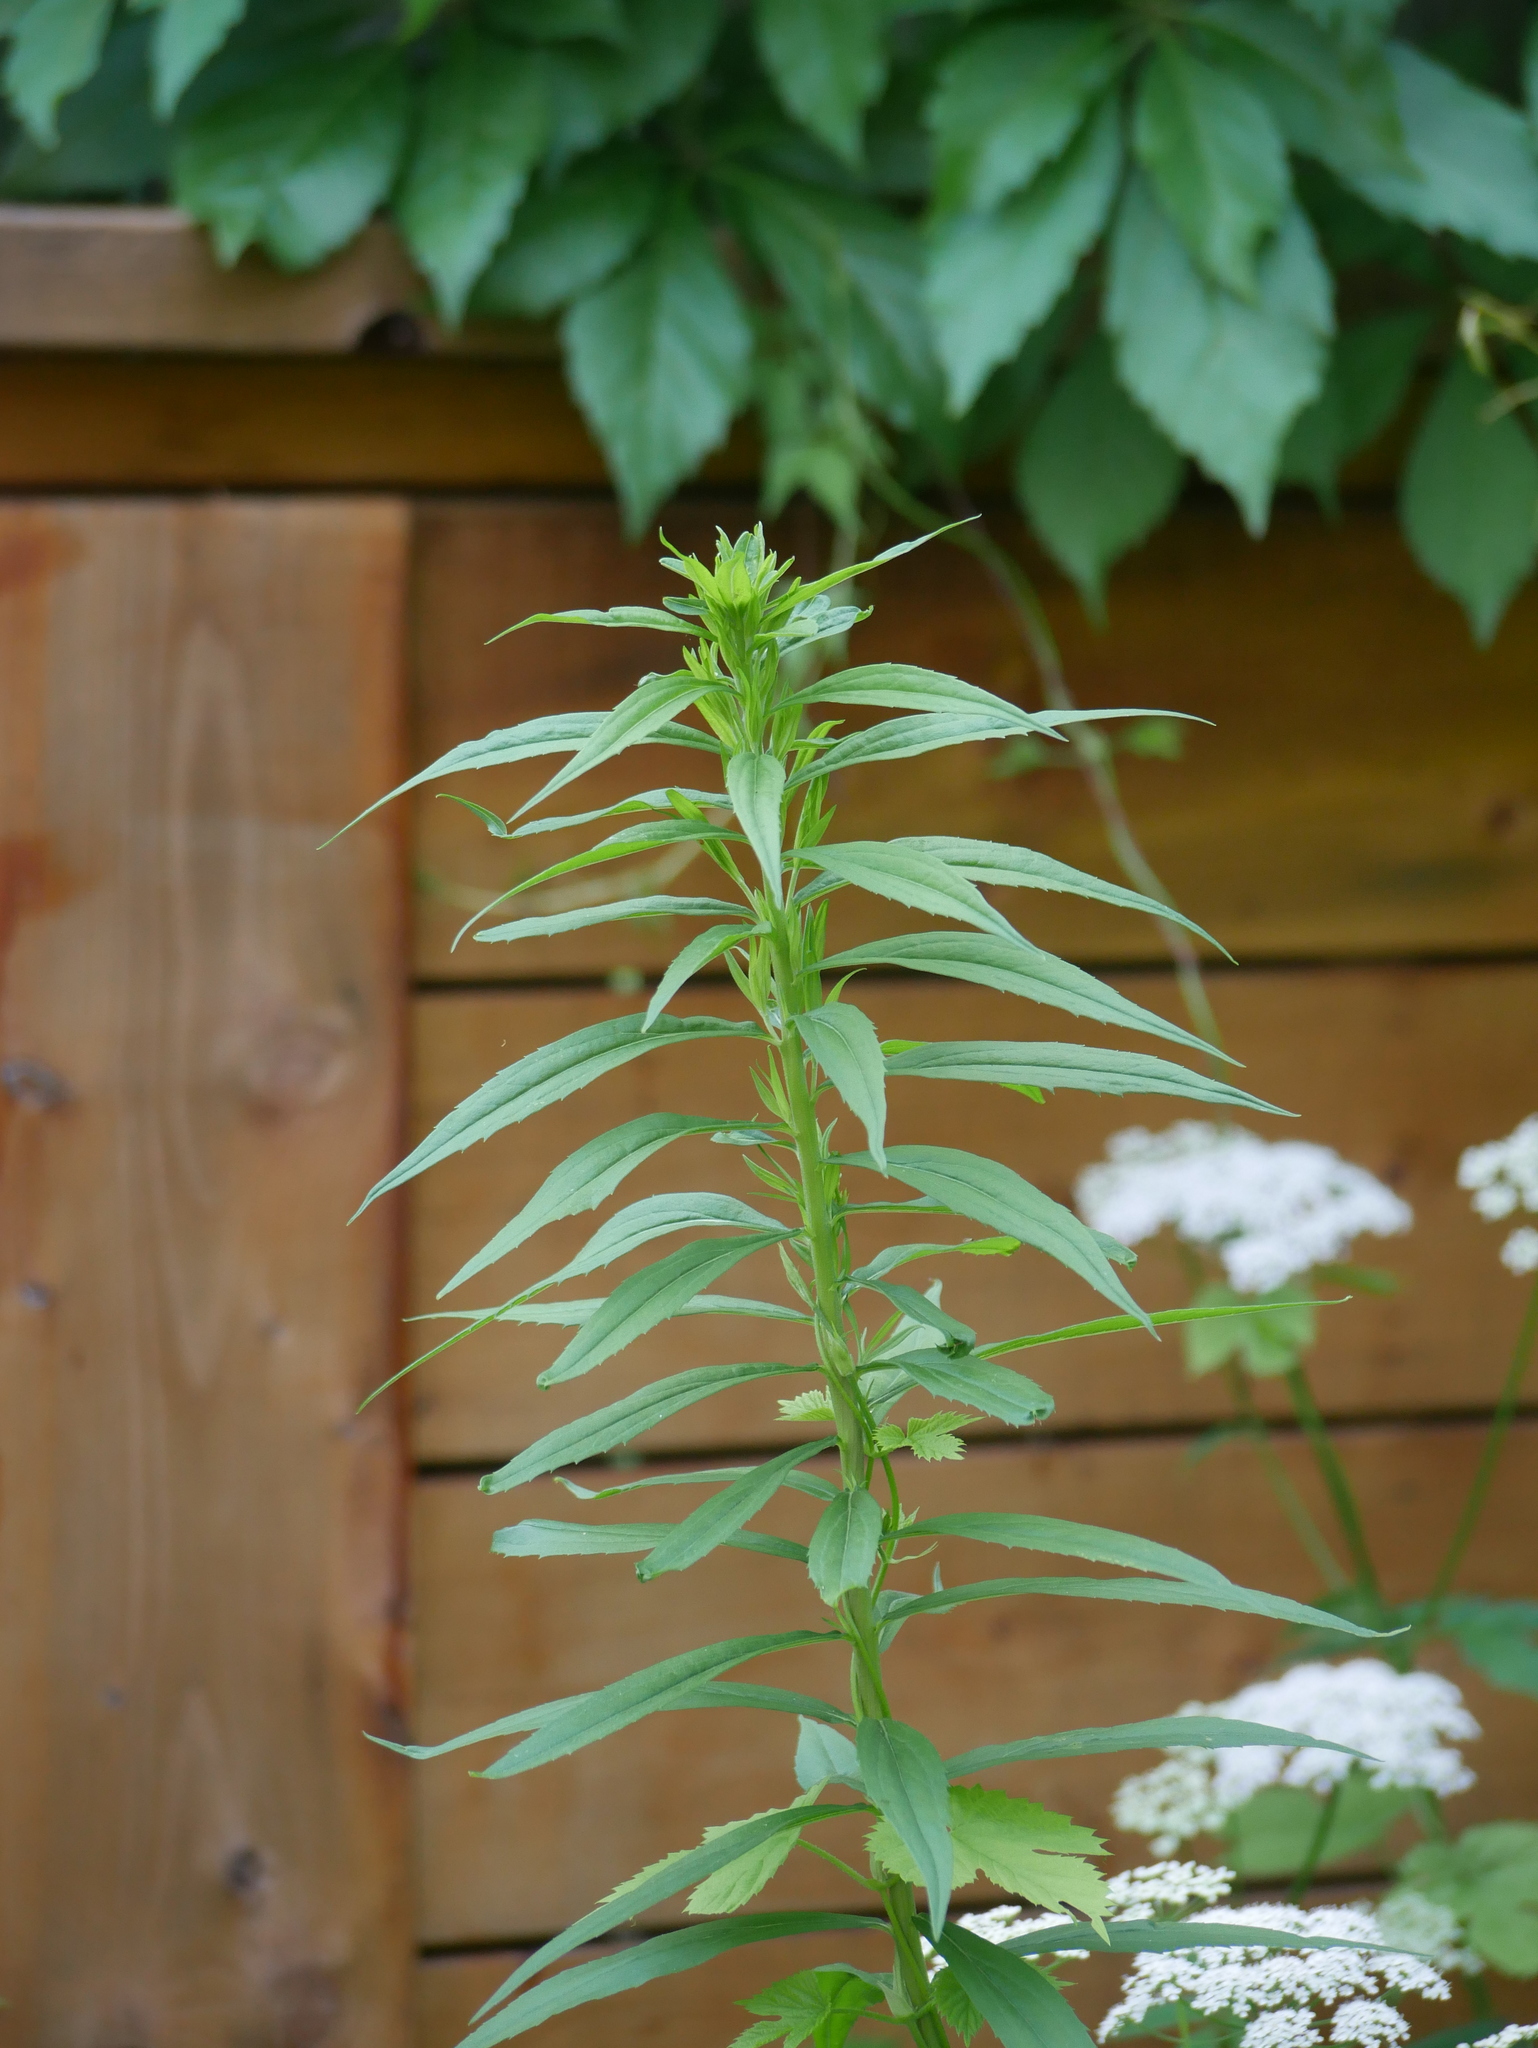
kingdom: Plantae
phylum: Tracheophyta
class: Magnoliopsida
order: Asterales
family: Asteraceae
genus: Solidago
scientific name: Solidago canadensis
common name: Canada goldenrod
